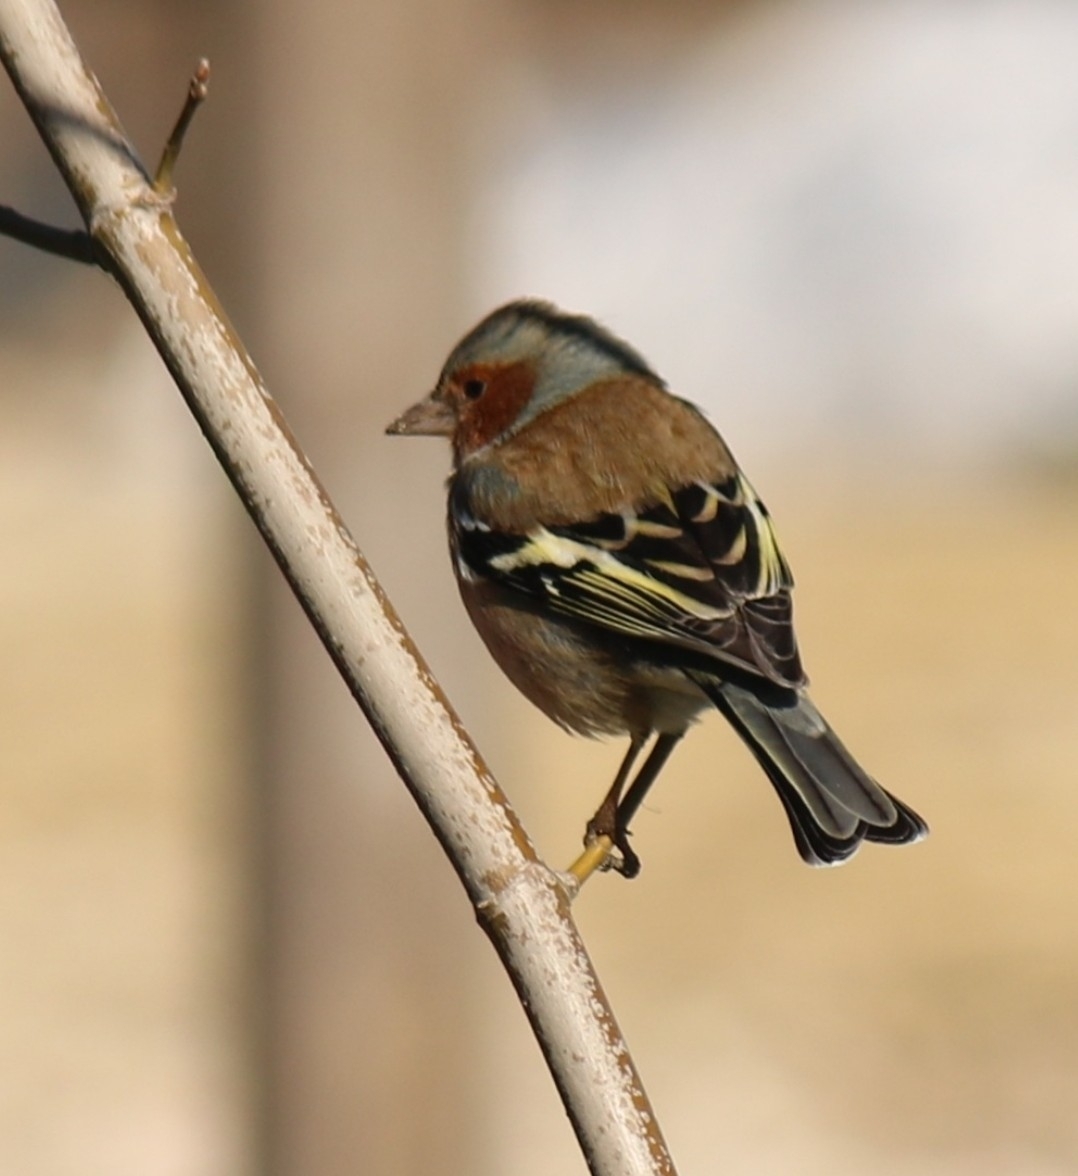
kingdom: Animalia
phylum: Chordata
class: Aves
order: Passeriformes
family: Fringillidae
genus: Fringilla
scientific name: Fringilla coelebs
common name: Common chaffinch
